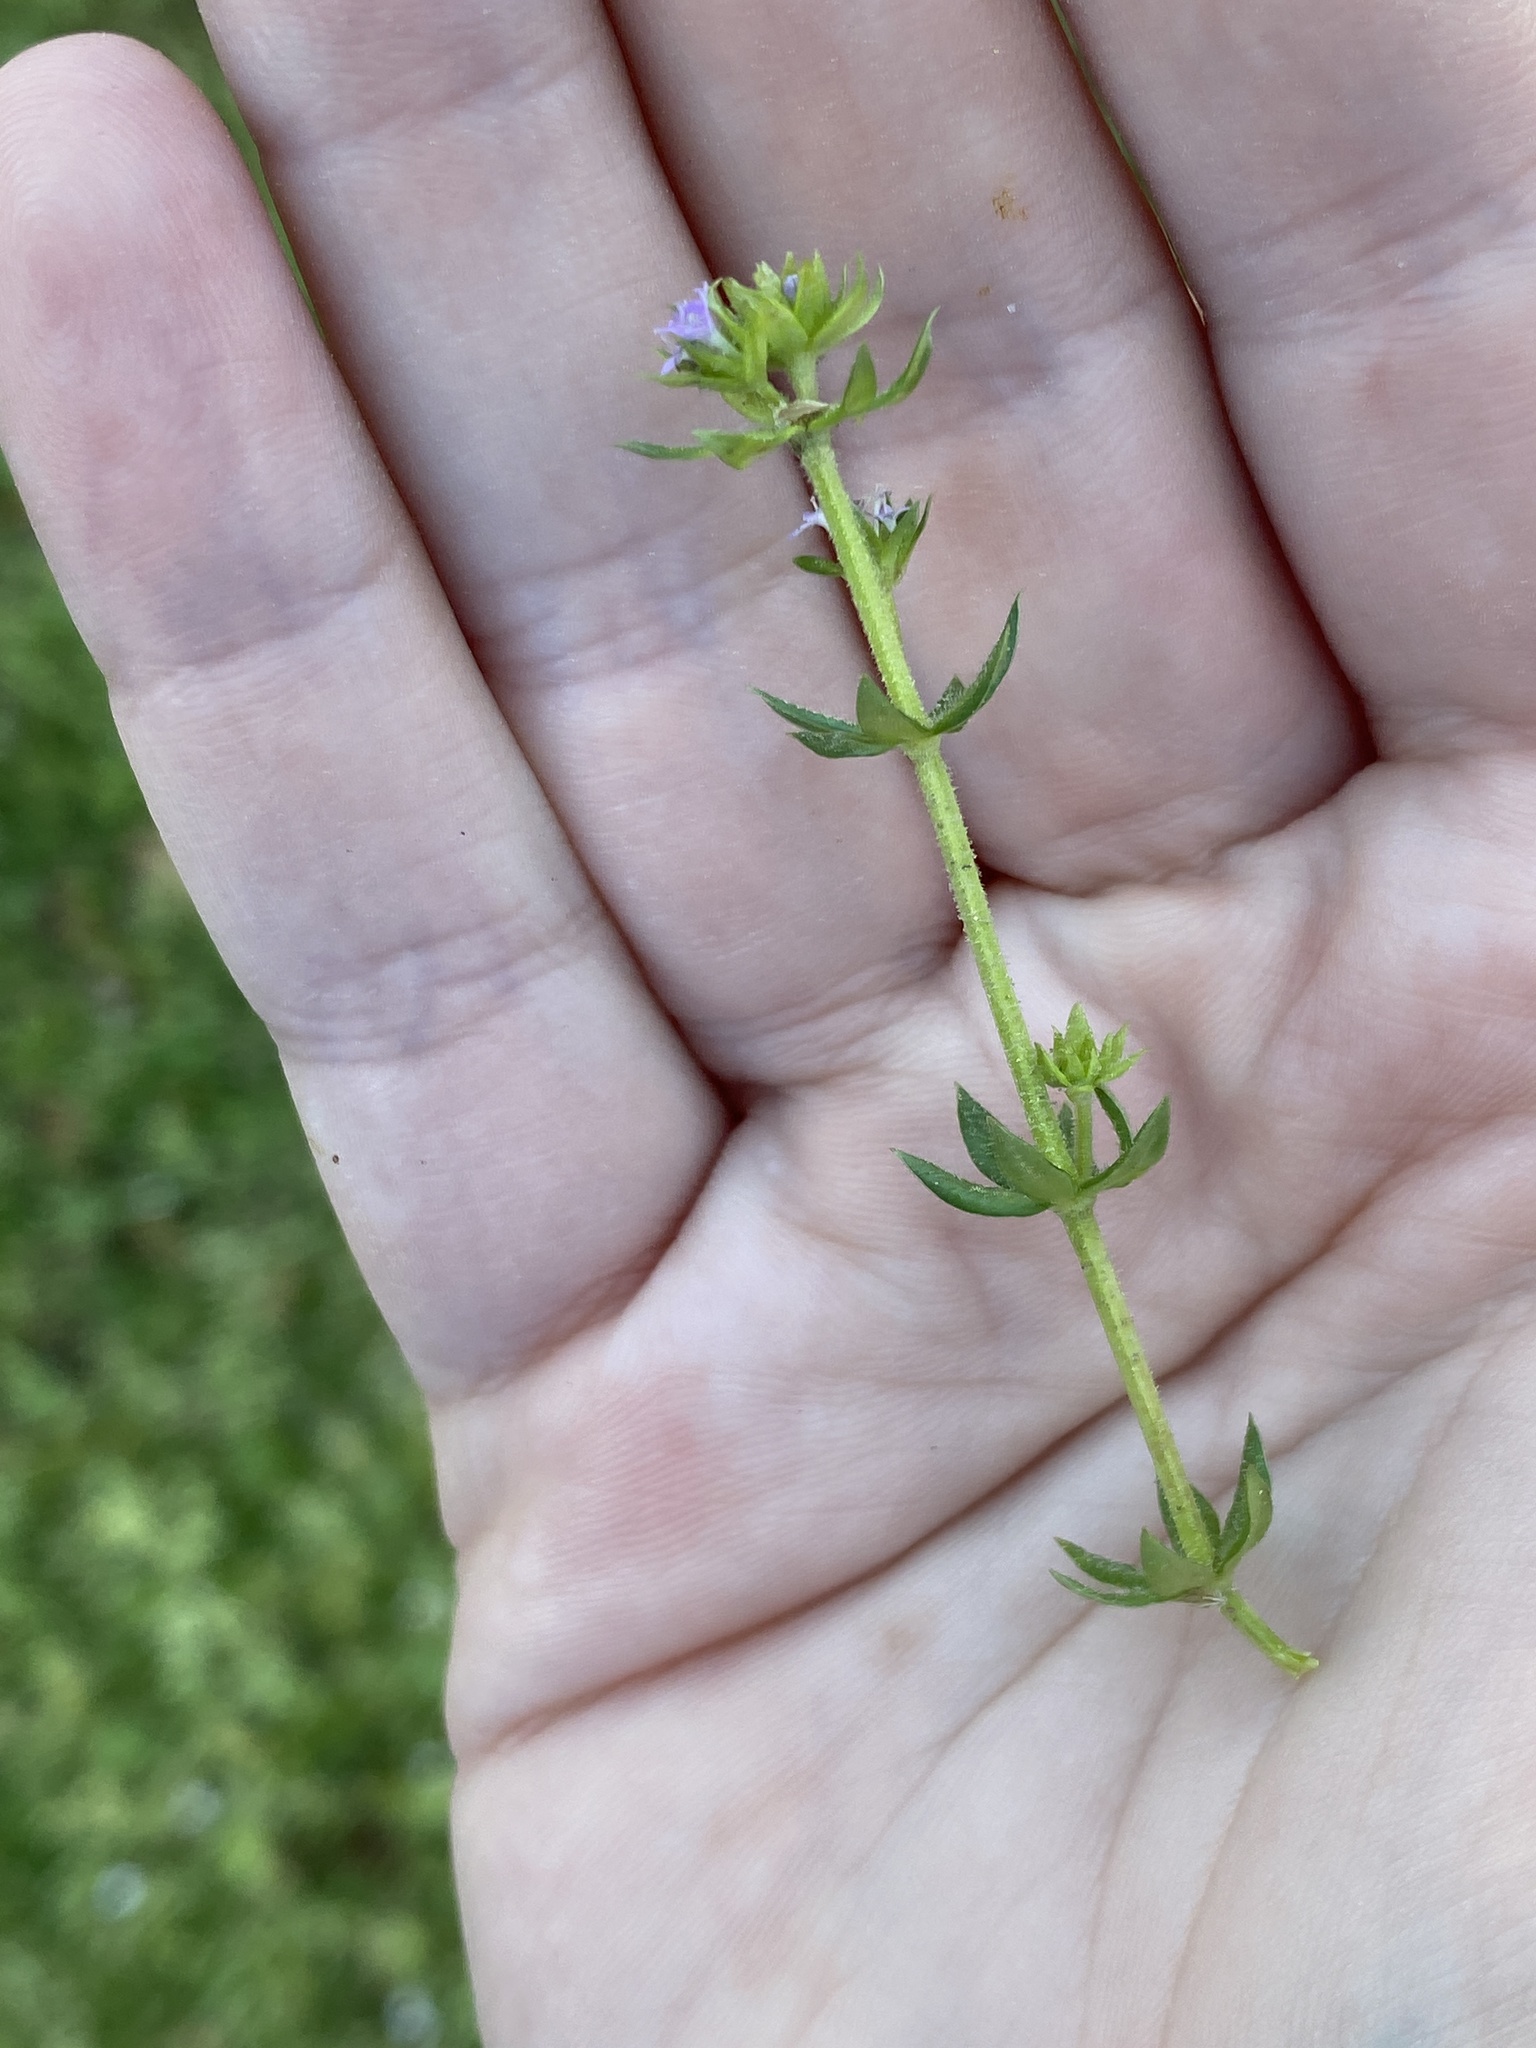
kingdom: Plantae
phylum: Tracheophyta
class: Magnoliopsida
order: Gentianales
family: Rubiaceae
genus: Sherardia
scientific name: Sherardia arvensis
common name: Field madder
